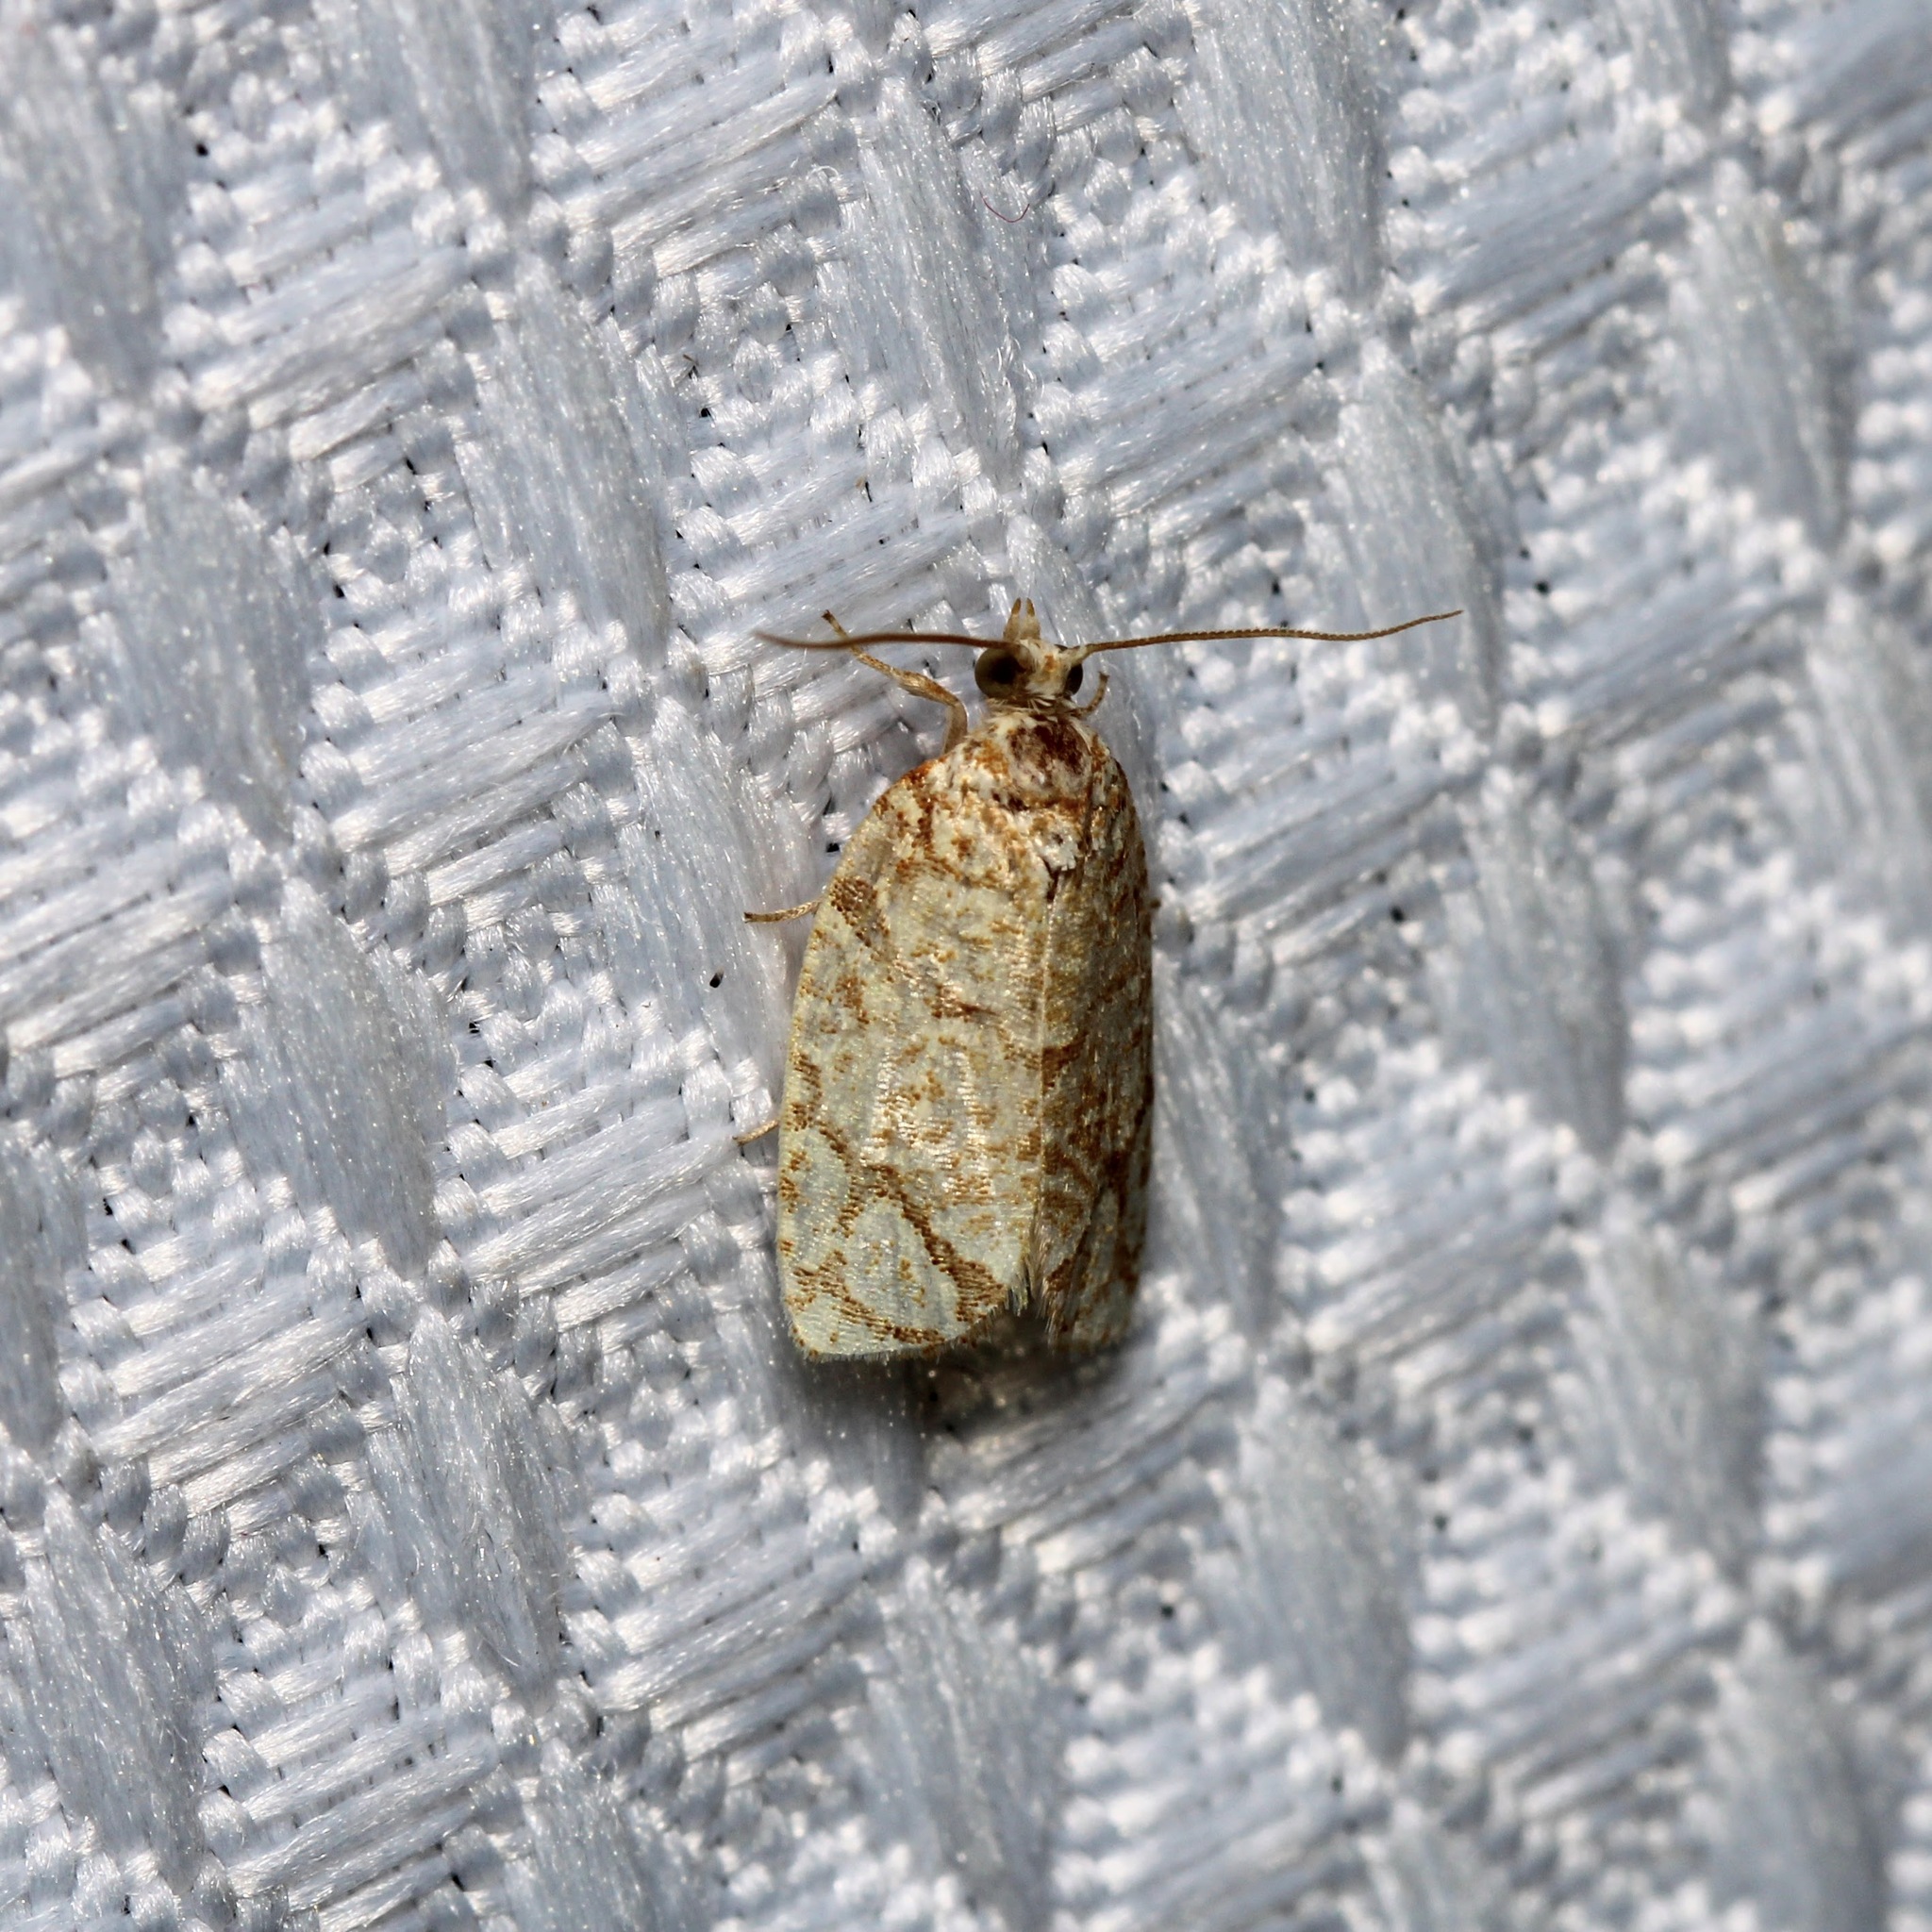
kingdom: Animalia
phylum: Arthropoda
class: Insecta
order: Lepidoptera
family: Tortricidae
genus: Argyrotaenia
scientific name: Argyrotaenia quercifoliana
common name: Yellow-winged oak leafroller moth
